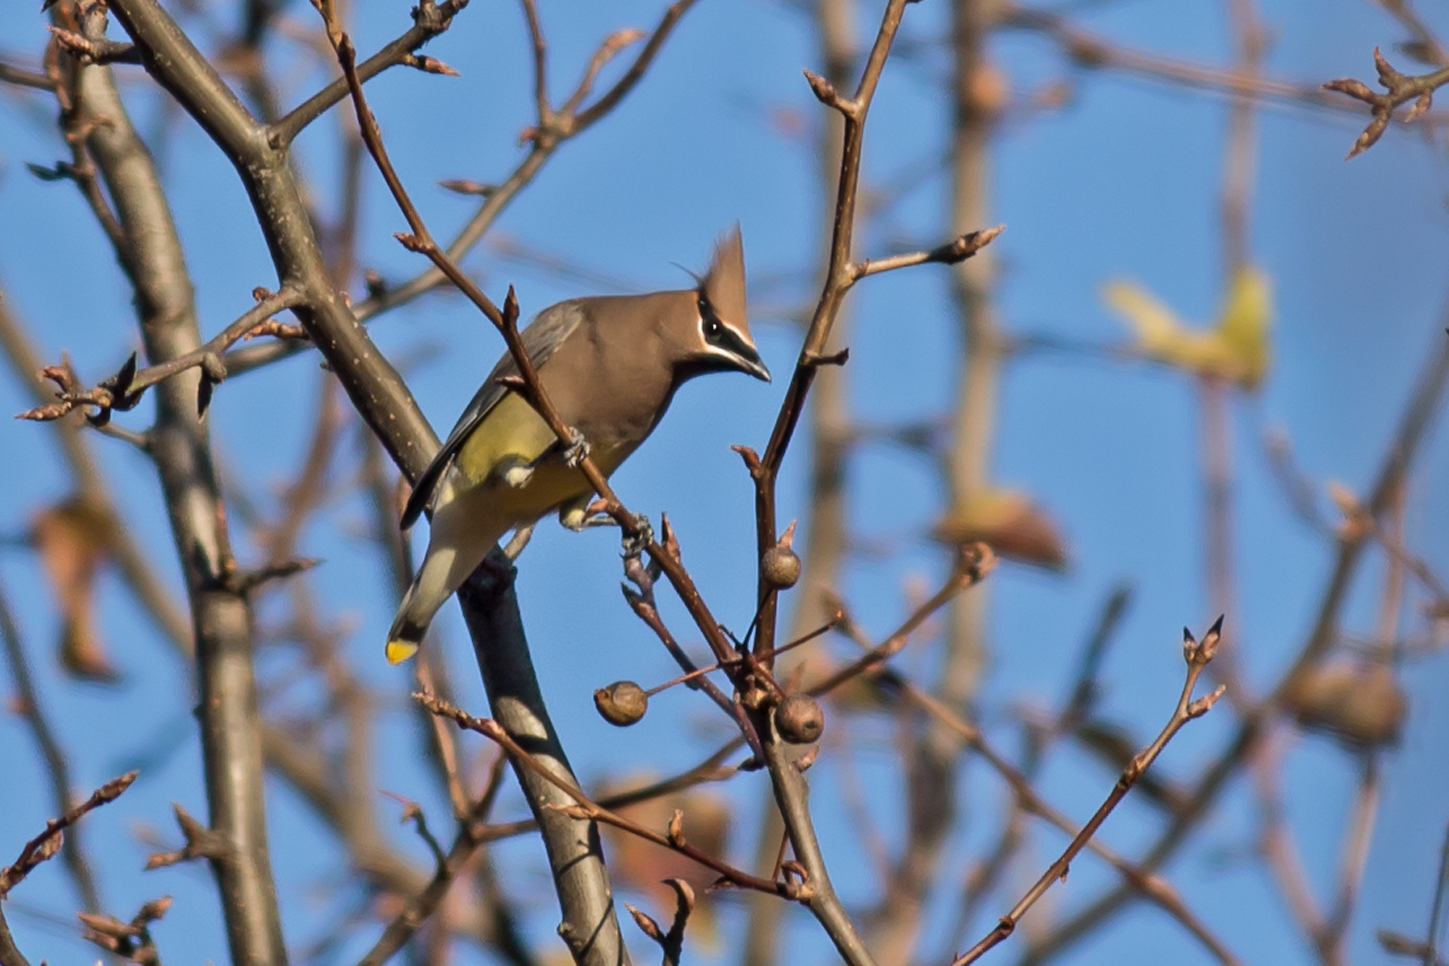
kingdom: Animalia
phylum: Chordata
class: Aves
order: Passeriformes
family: Bombycillidae
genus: Bombycilla
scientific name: Bombycilla cedrorum
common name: Cedar waxwing
